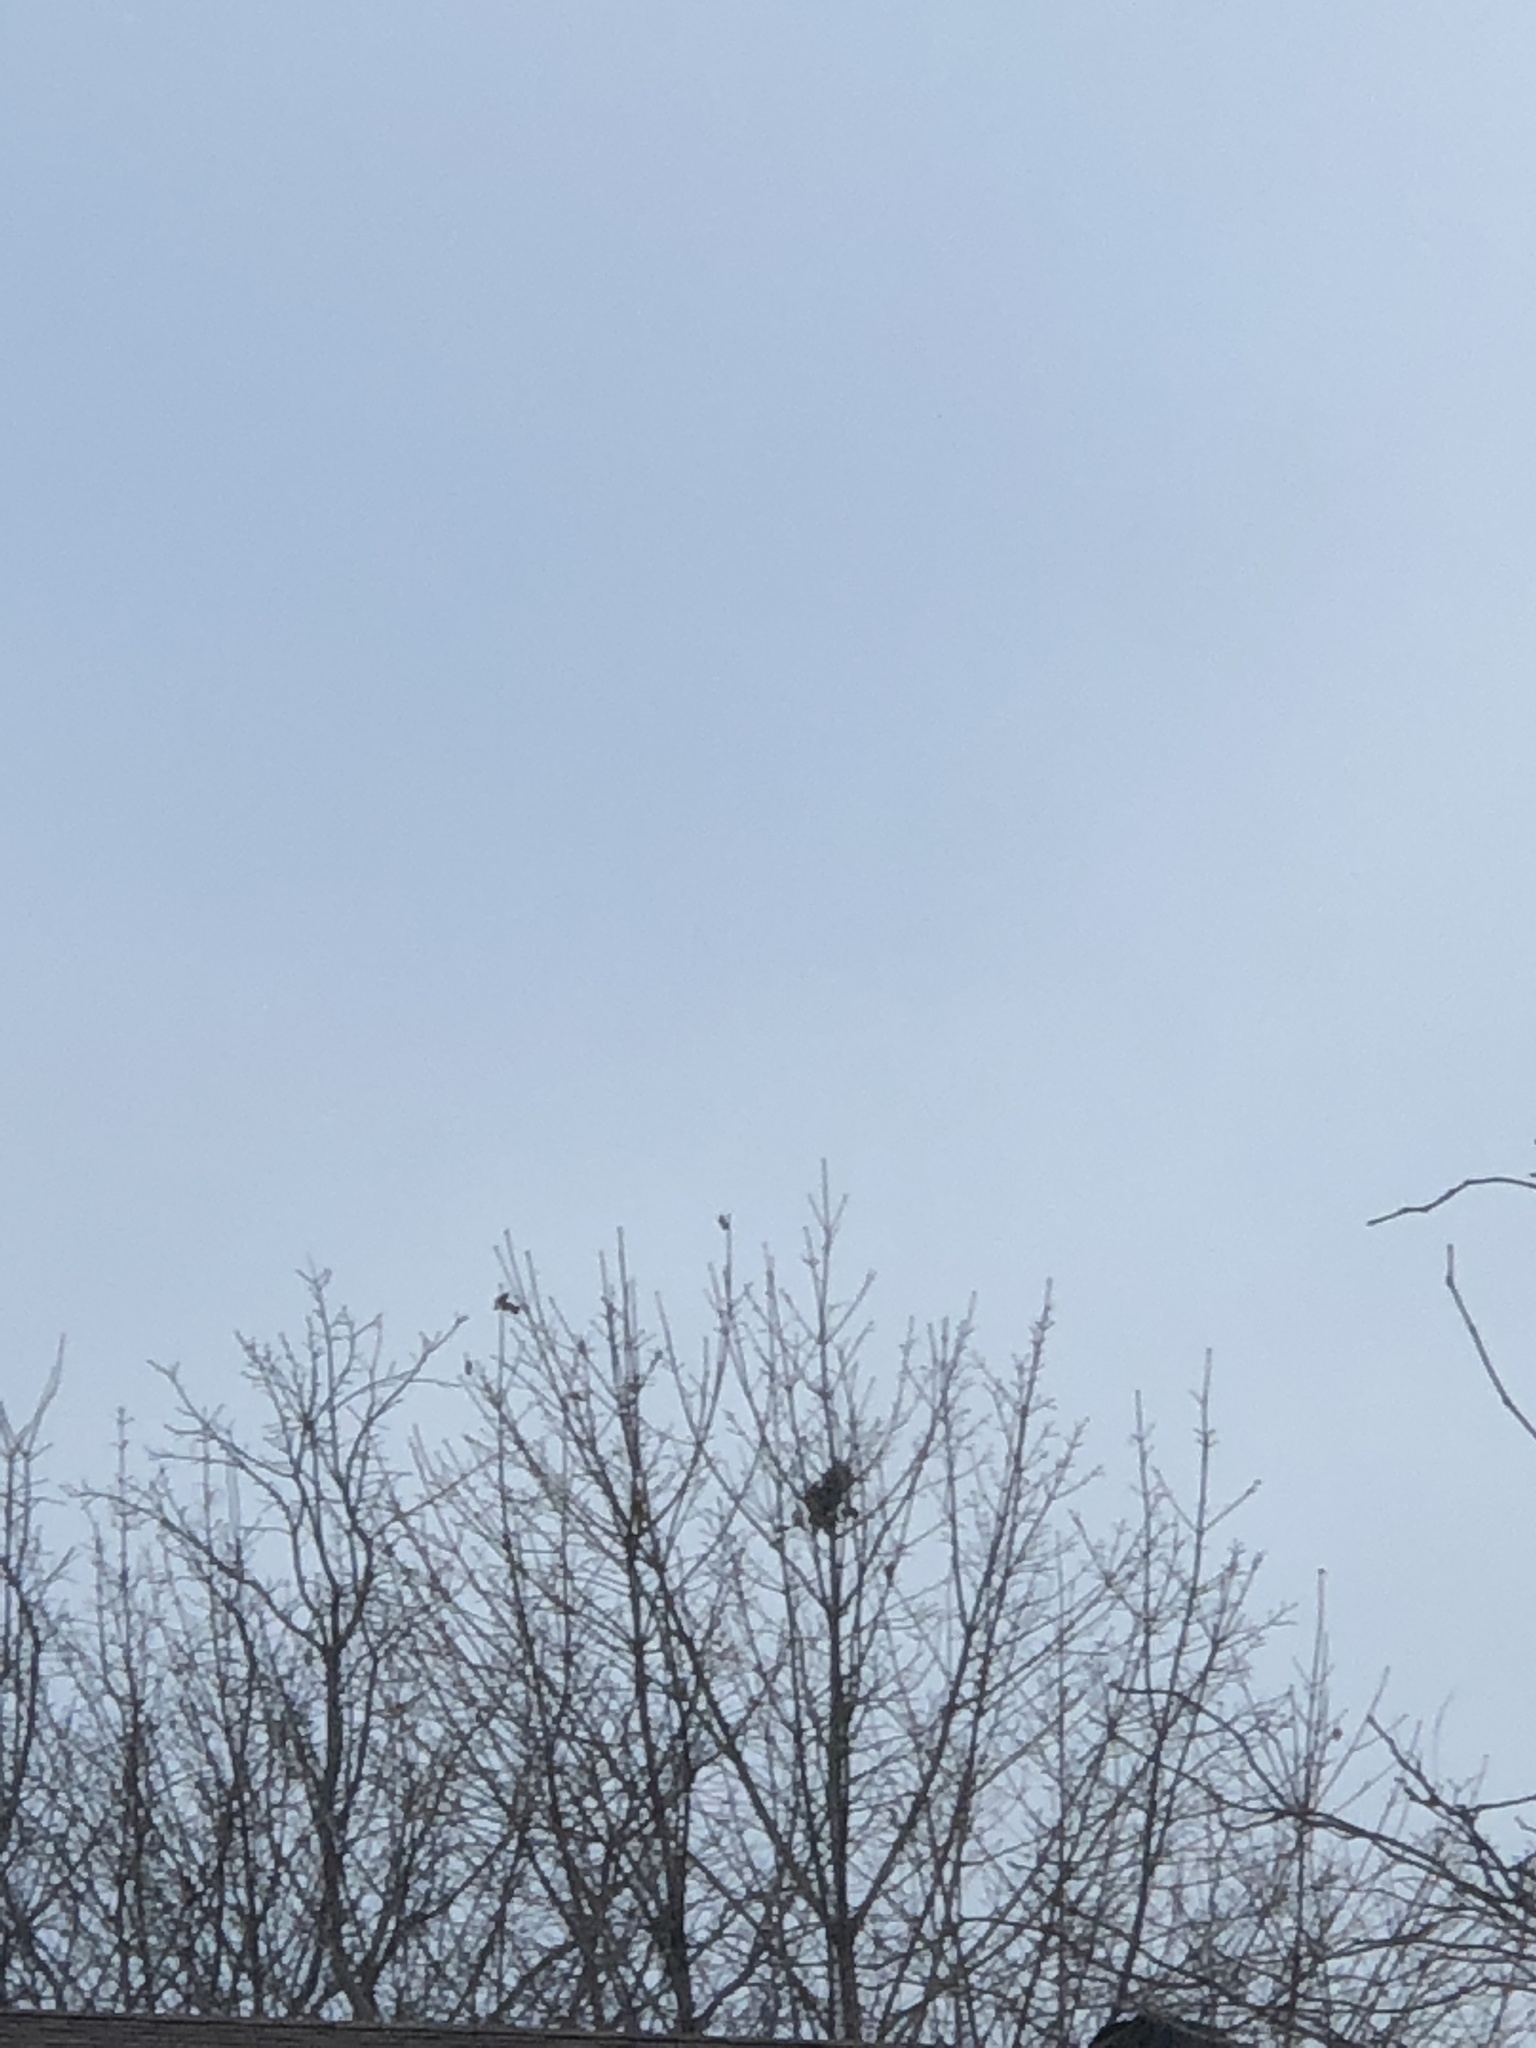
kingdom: Animalia
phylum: Chordata
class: Mammalia
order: Rodentia
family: Sciuridae
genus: Sciurus
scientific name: Sciurus carolinensis
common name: Eastern gray squirrel
